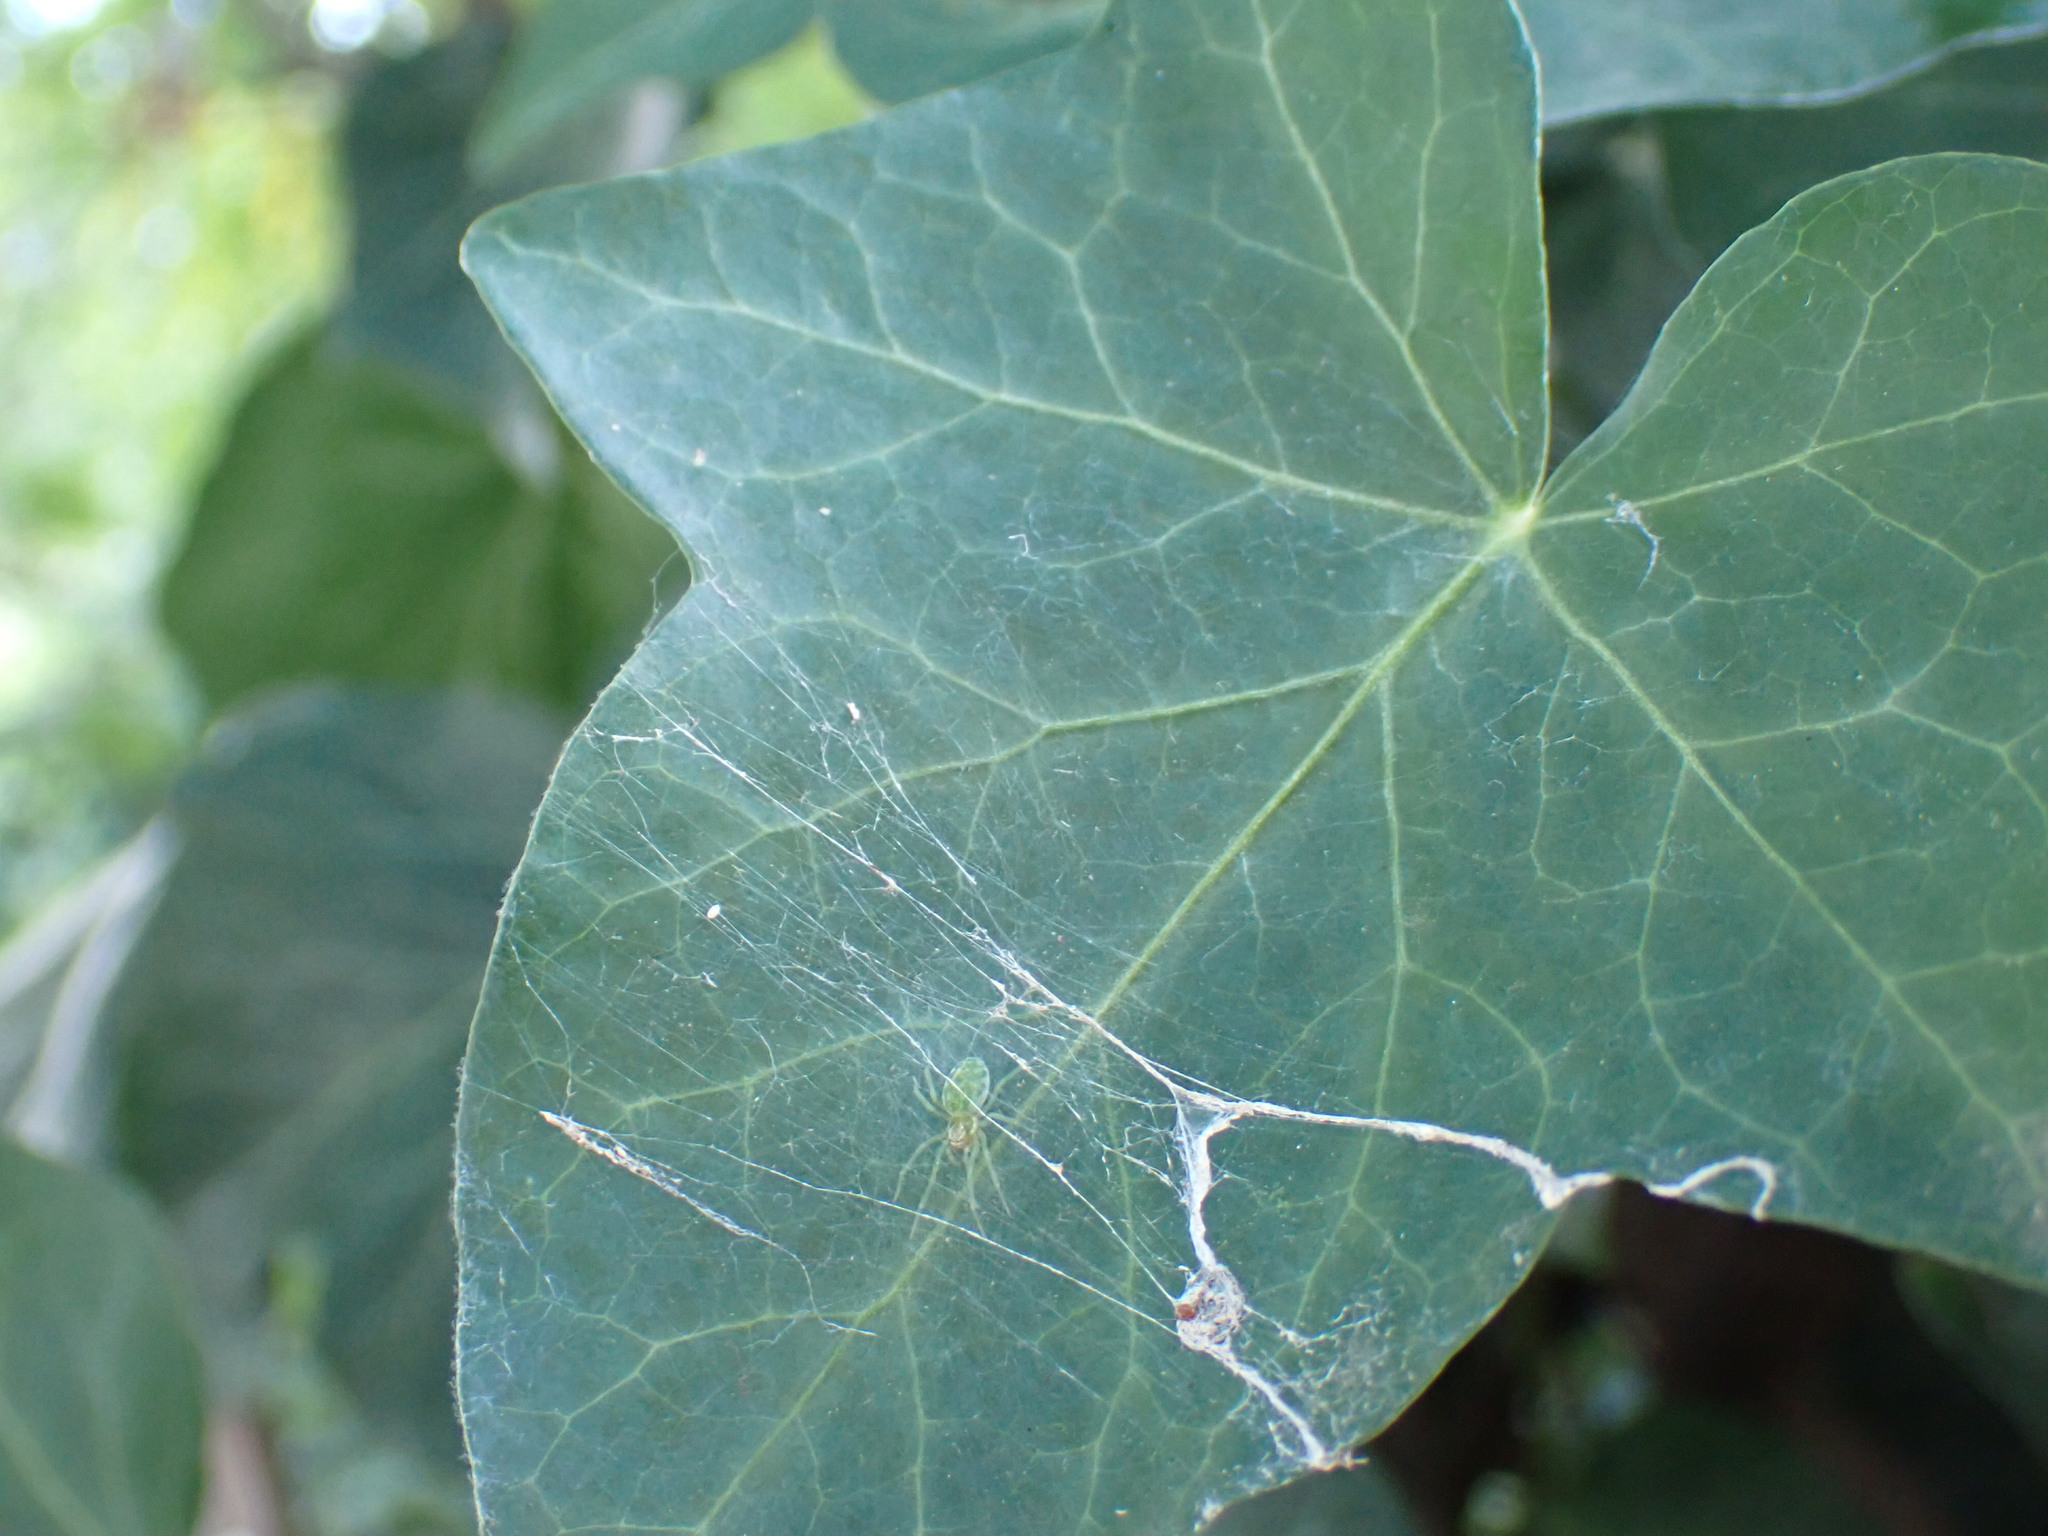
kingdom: Animalia
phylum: Arthropoda
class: Arachnida
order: Araneae
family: Dictynidae
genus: Nigma
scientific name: Nigma walckenaeri
